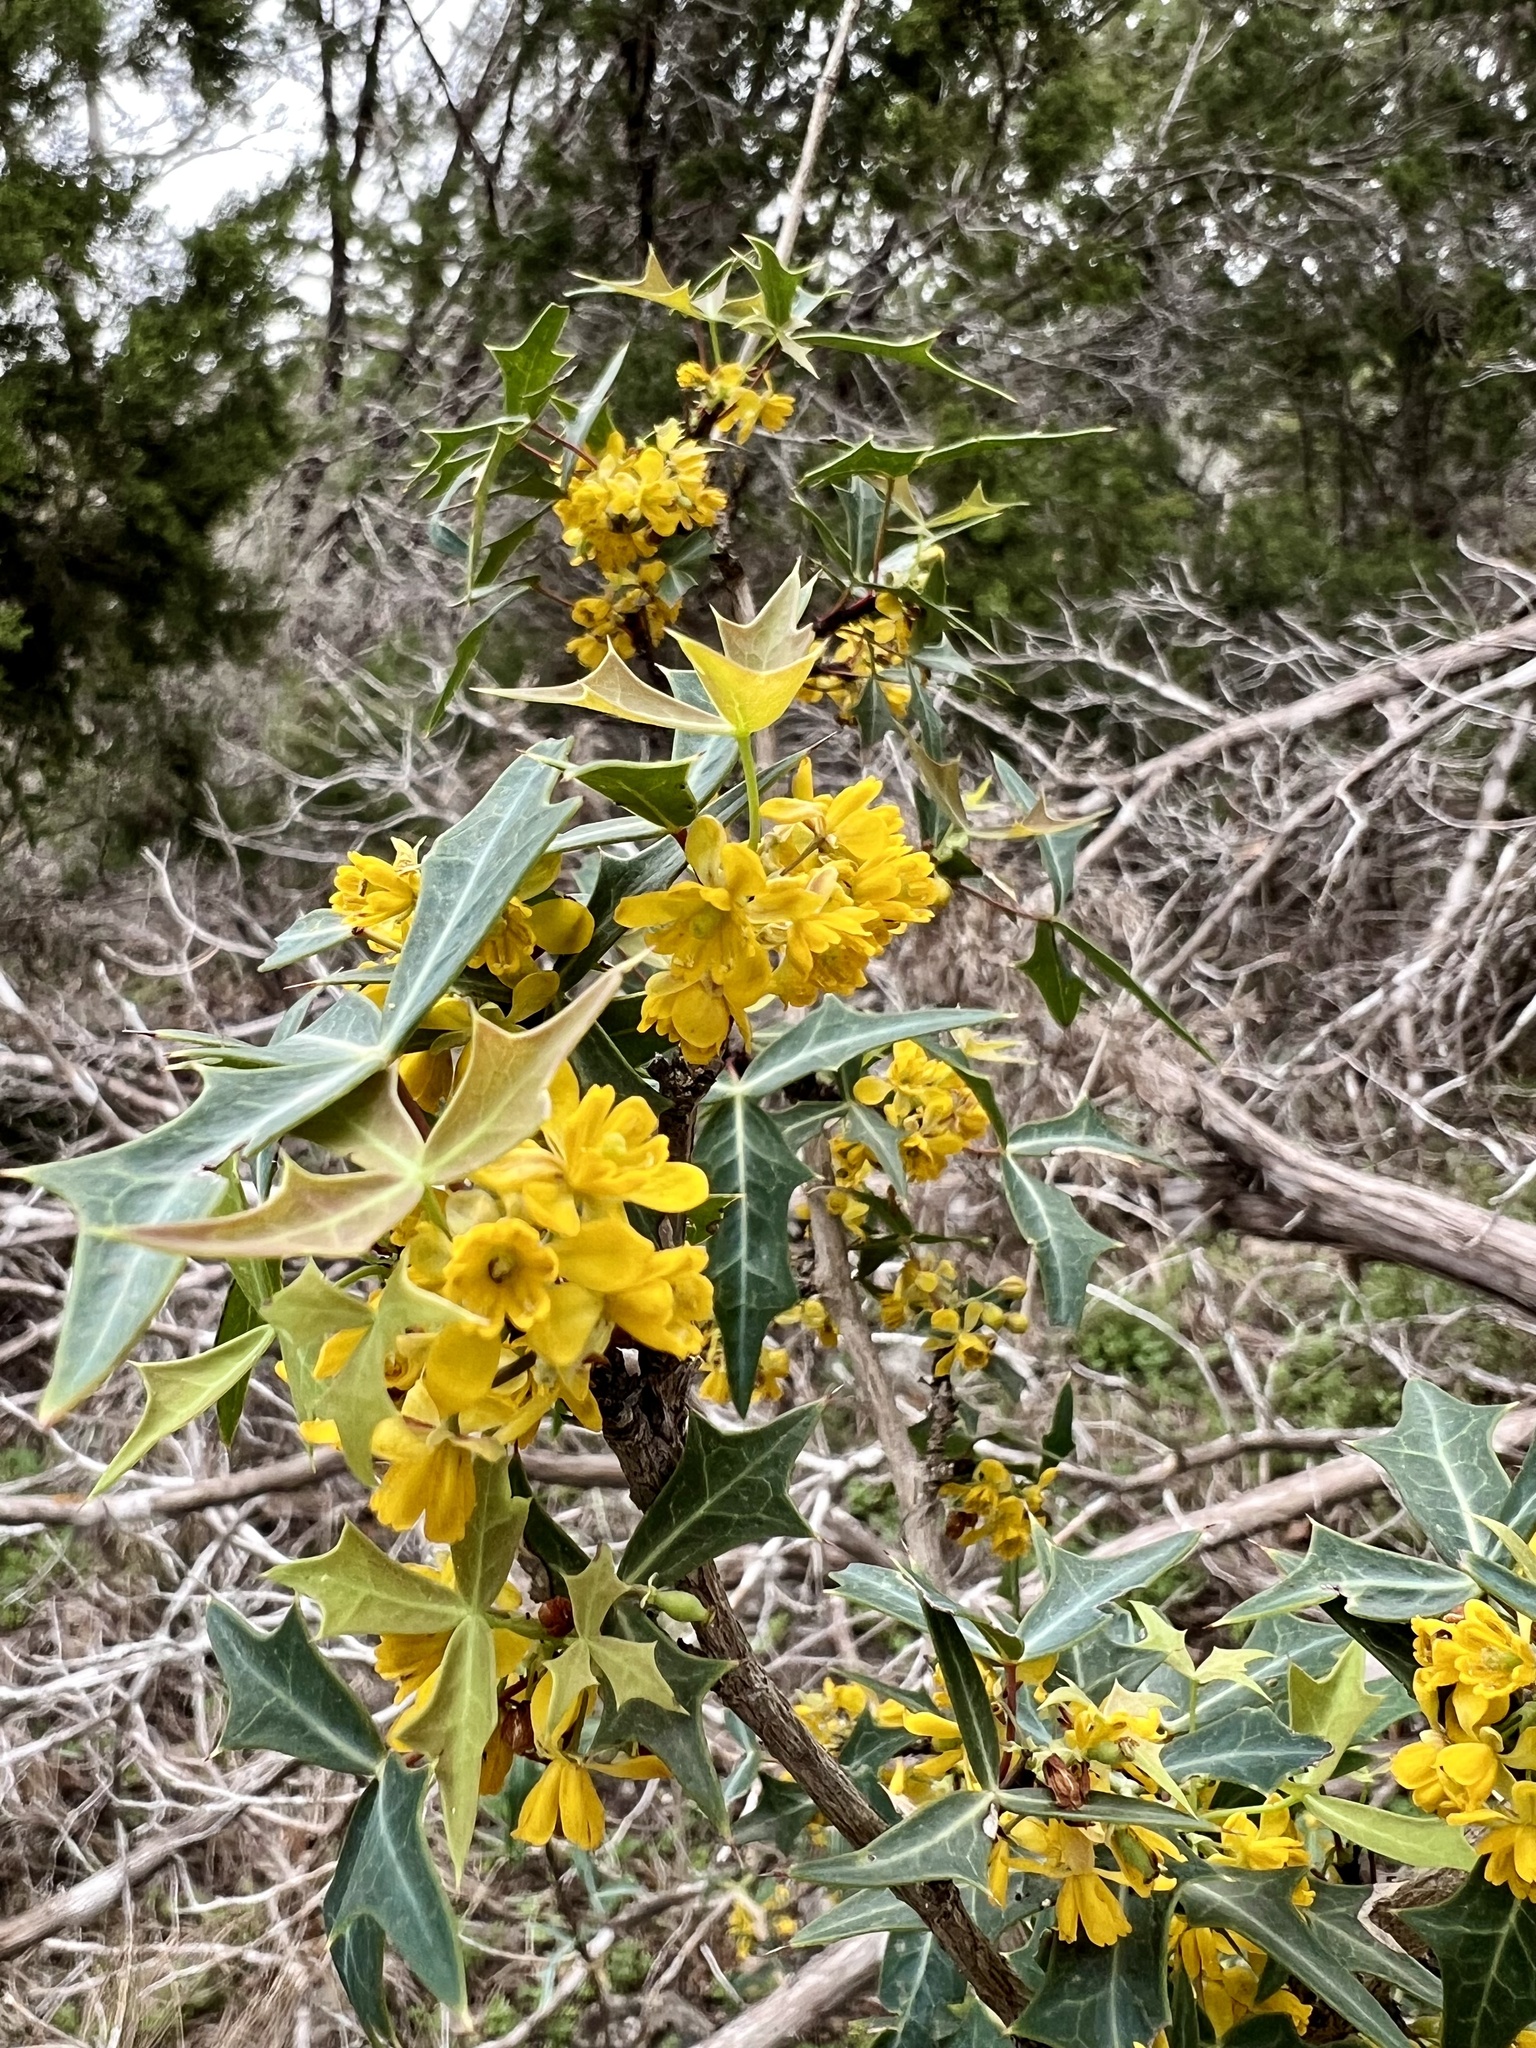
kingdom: Plantae
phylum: Tracheophyta
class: Magnoliopsida
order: Ranunculales
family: Berberidaceae
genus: Alloberberis
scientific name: Alloberberis trifoliolata
